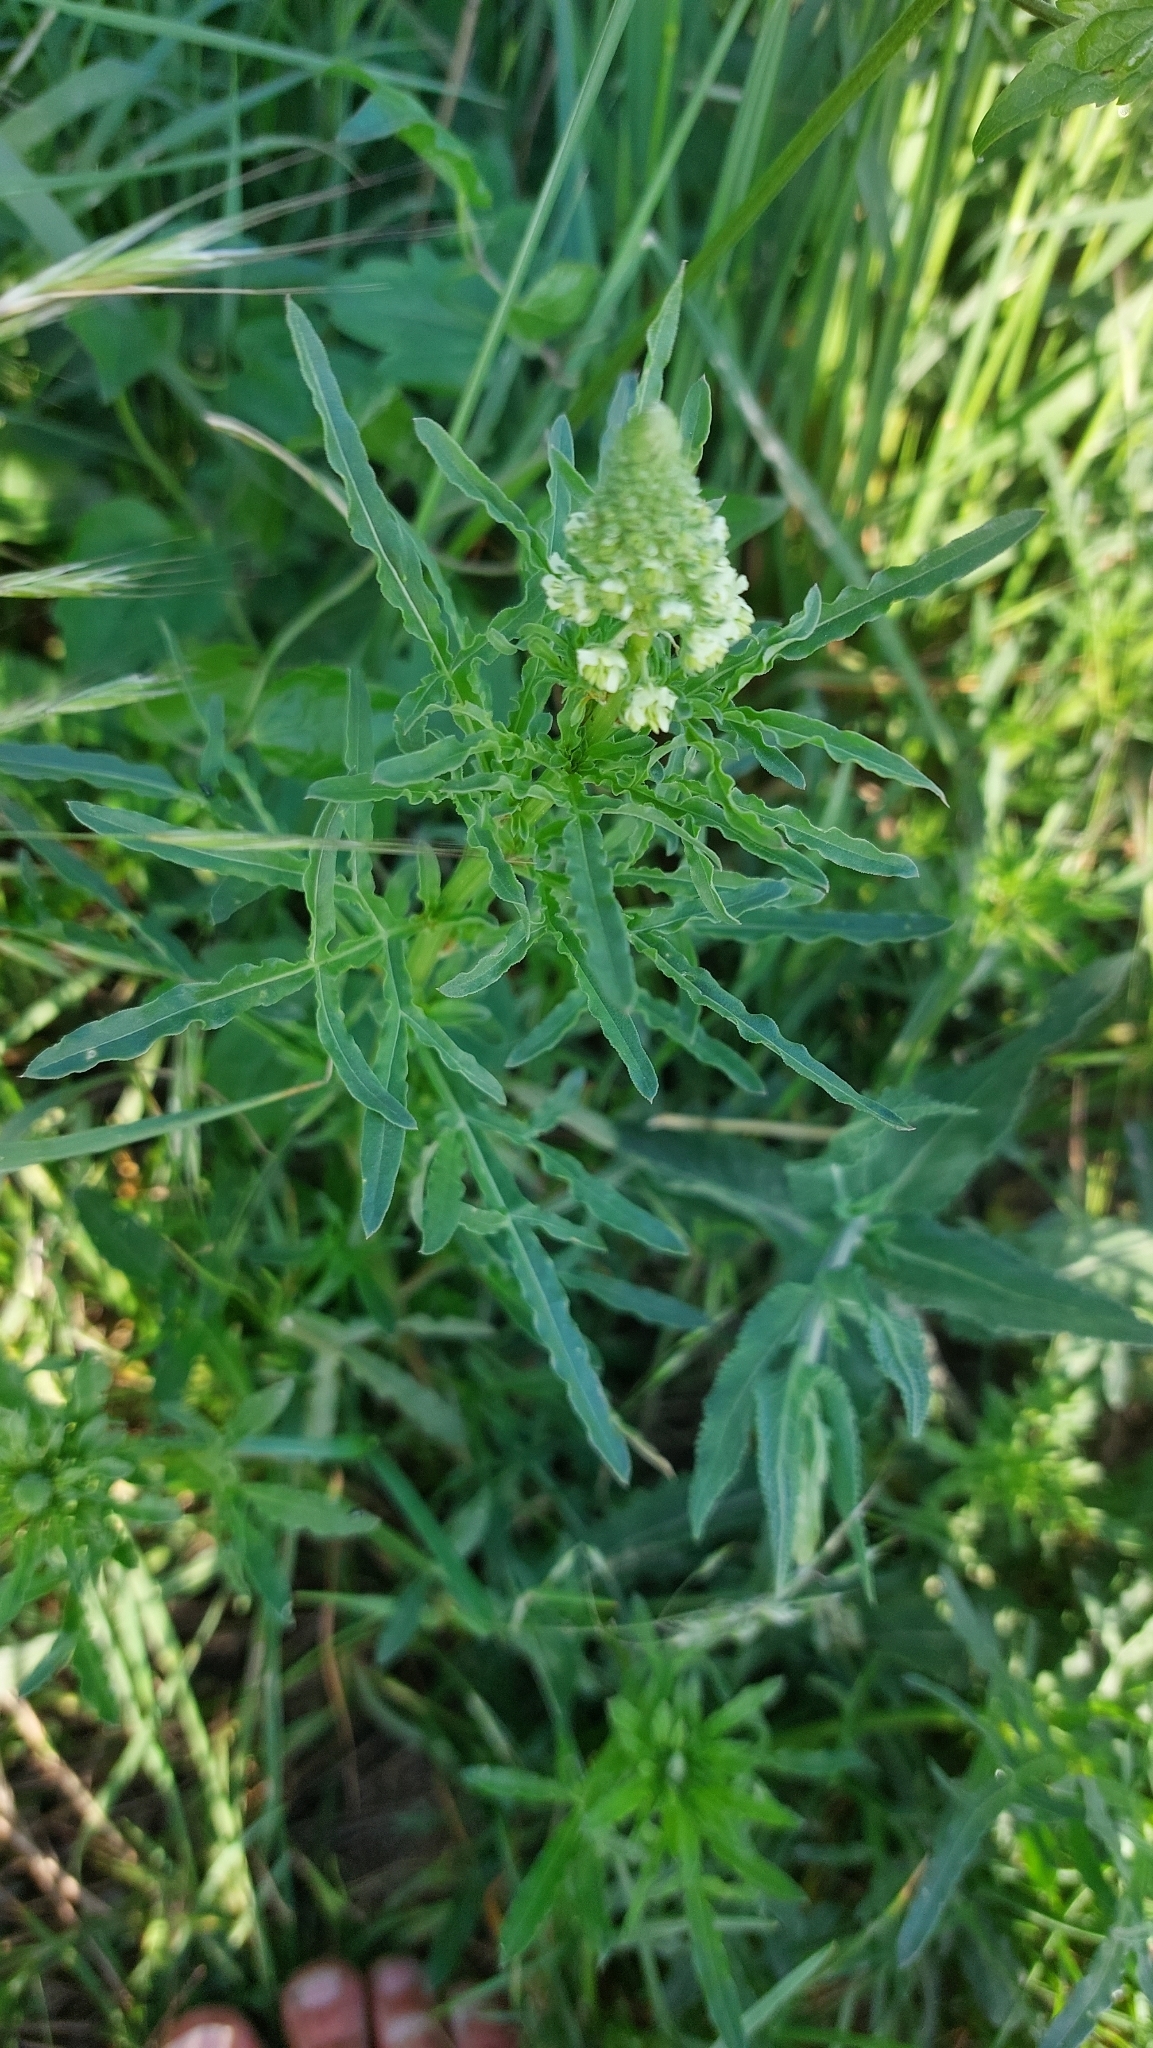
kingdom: Plantae
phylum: Tracheophyta
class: Magnoliopsida
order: Brassicales
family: Resedaceae
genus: Reseda
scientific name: Reseda lutea
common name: Wild mignonette
